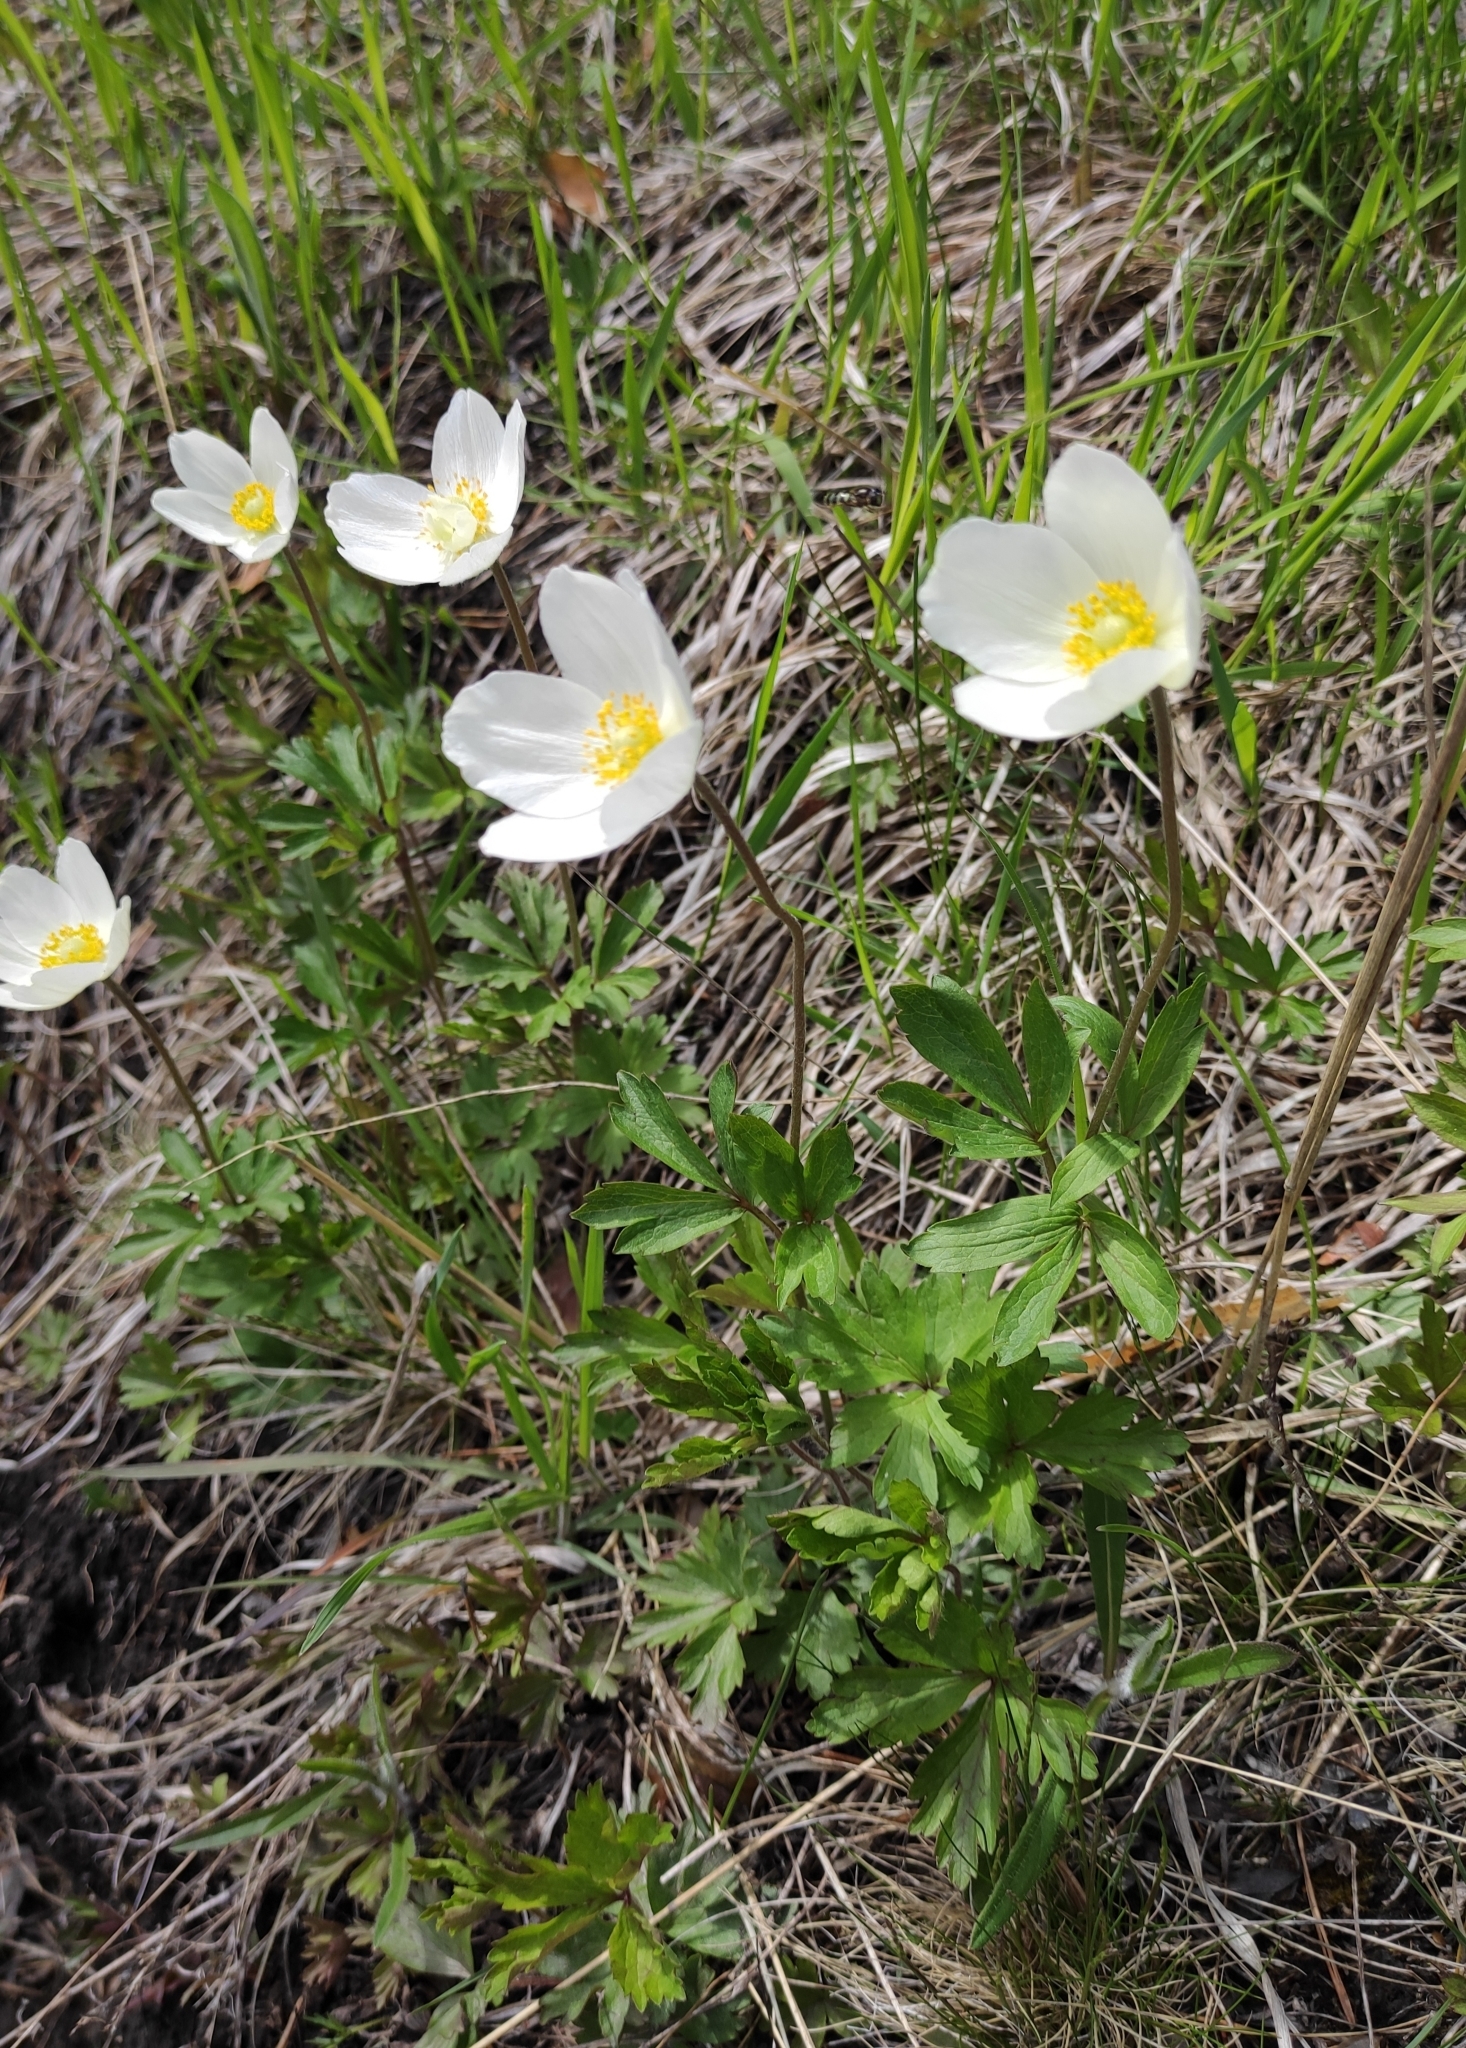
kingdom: Plantae
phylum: Tracheophyta
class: Magnoliopsida
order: Ranunculales
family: Ranunculaceae
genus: Anemone
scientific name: Anemone sylvestris
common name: Snowdrop anemone
